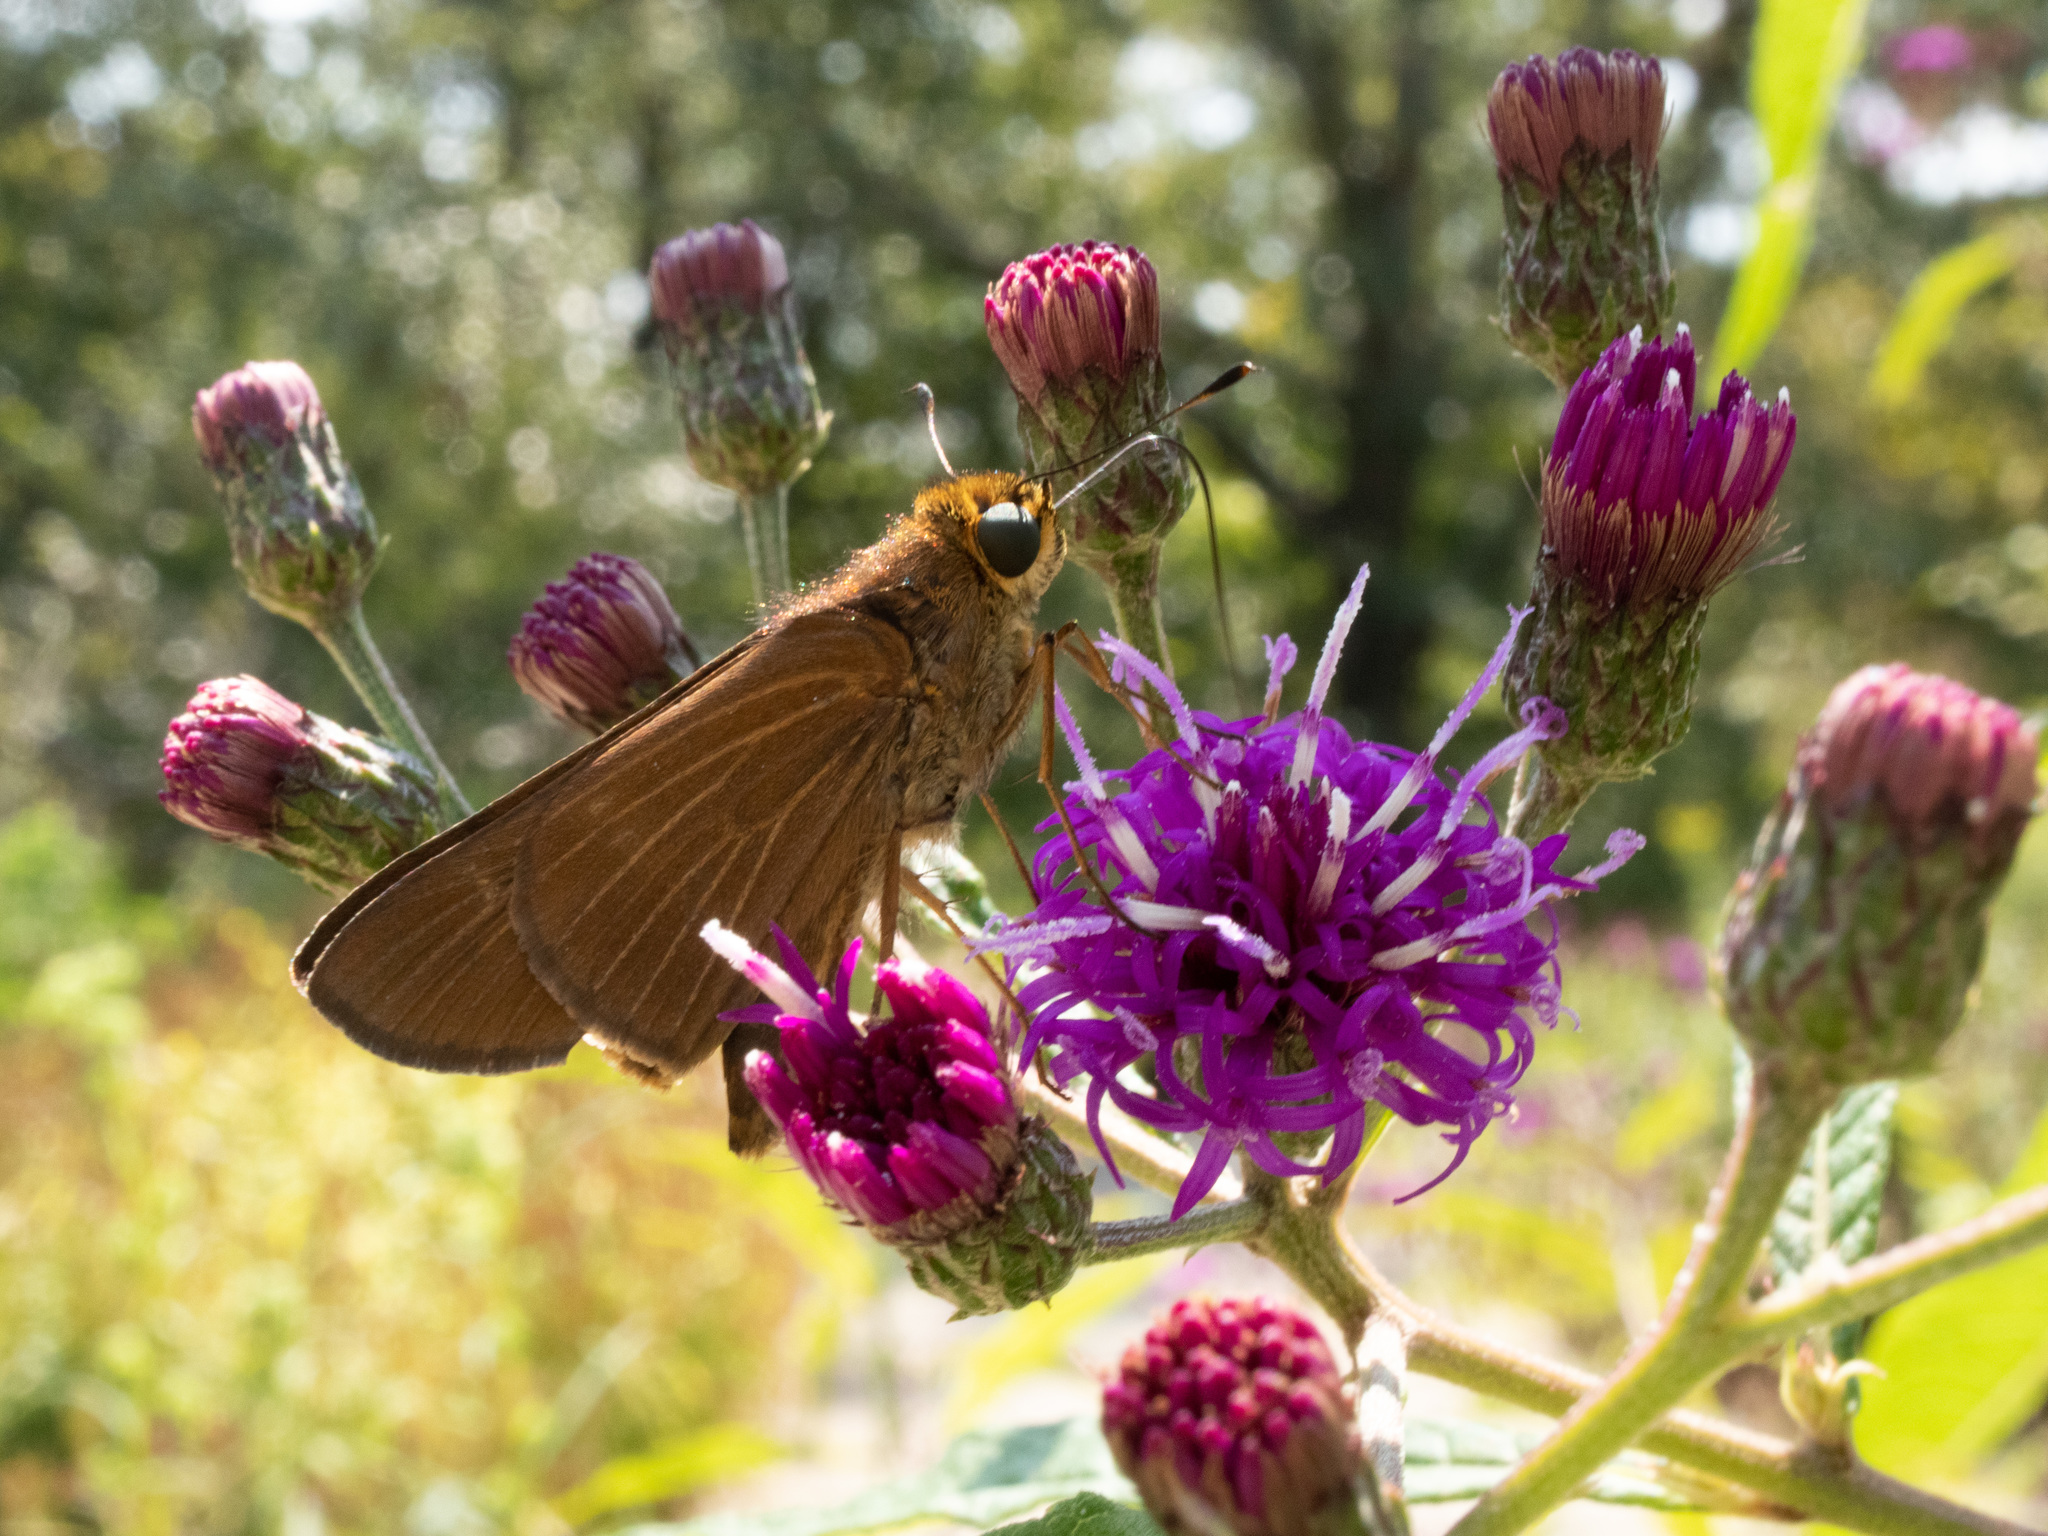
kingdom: Animalia
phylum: Arthropoda
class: Insecta
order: Lepidoptera
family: Hesperiidae
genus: Panoquina
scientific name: Panoquina ocola
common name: Ocola skipper
